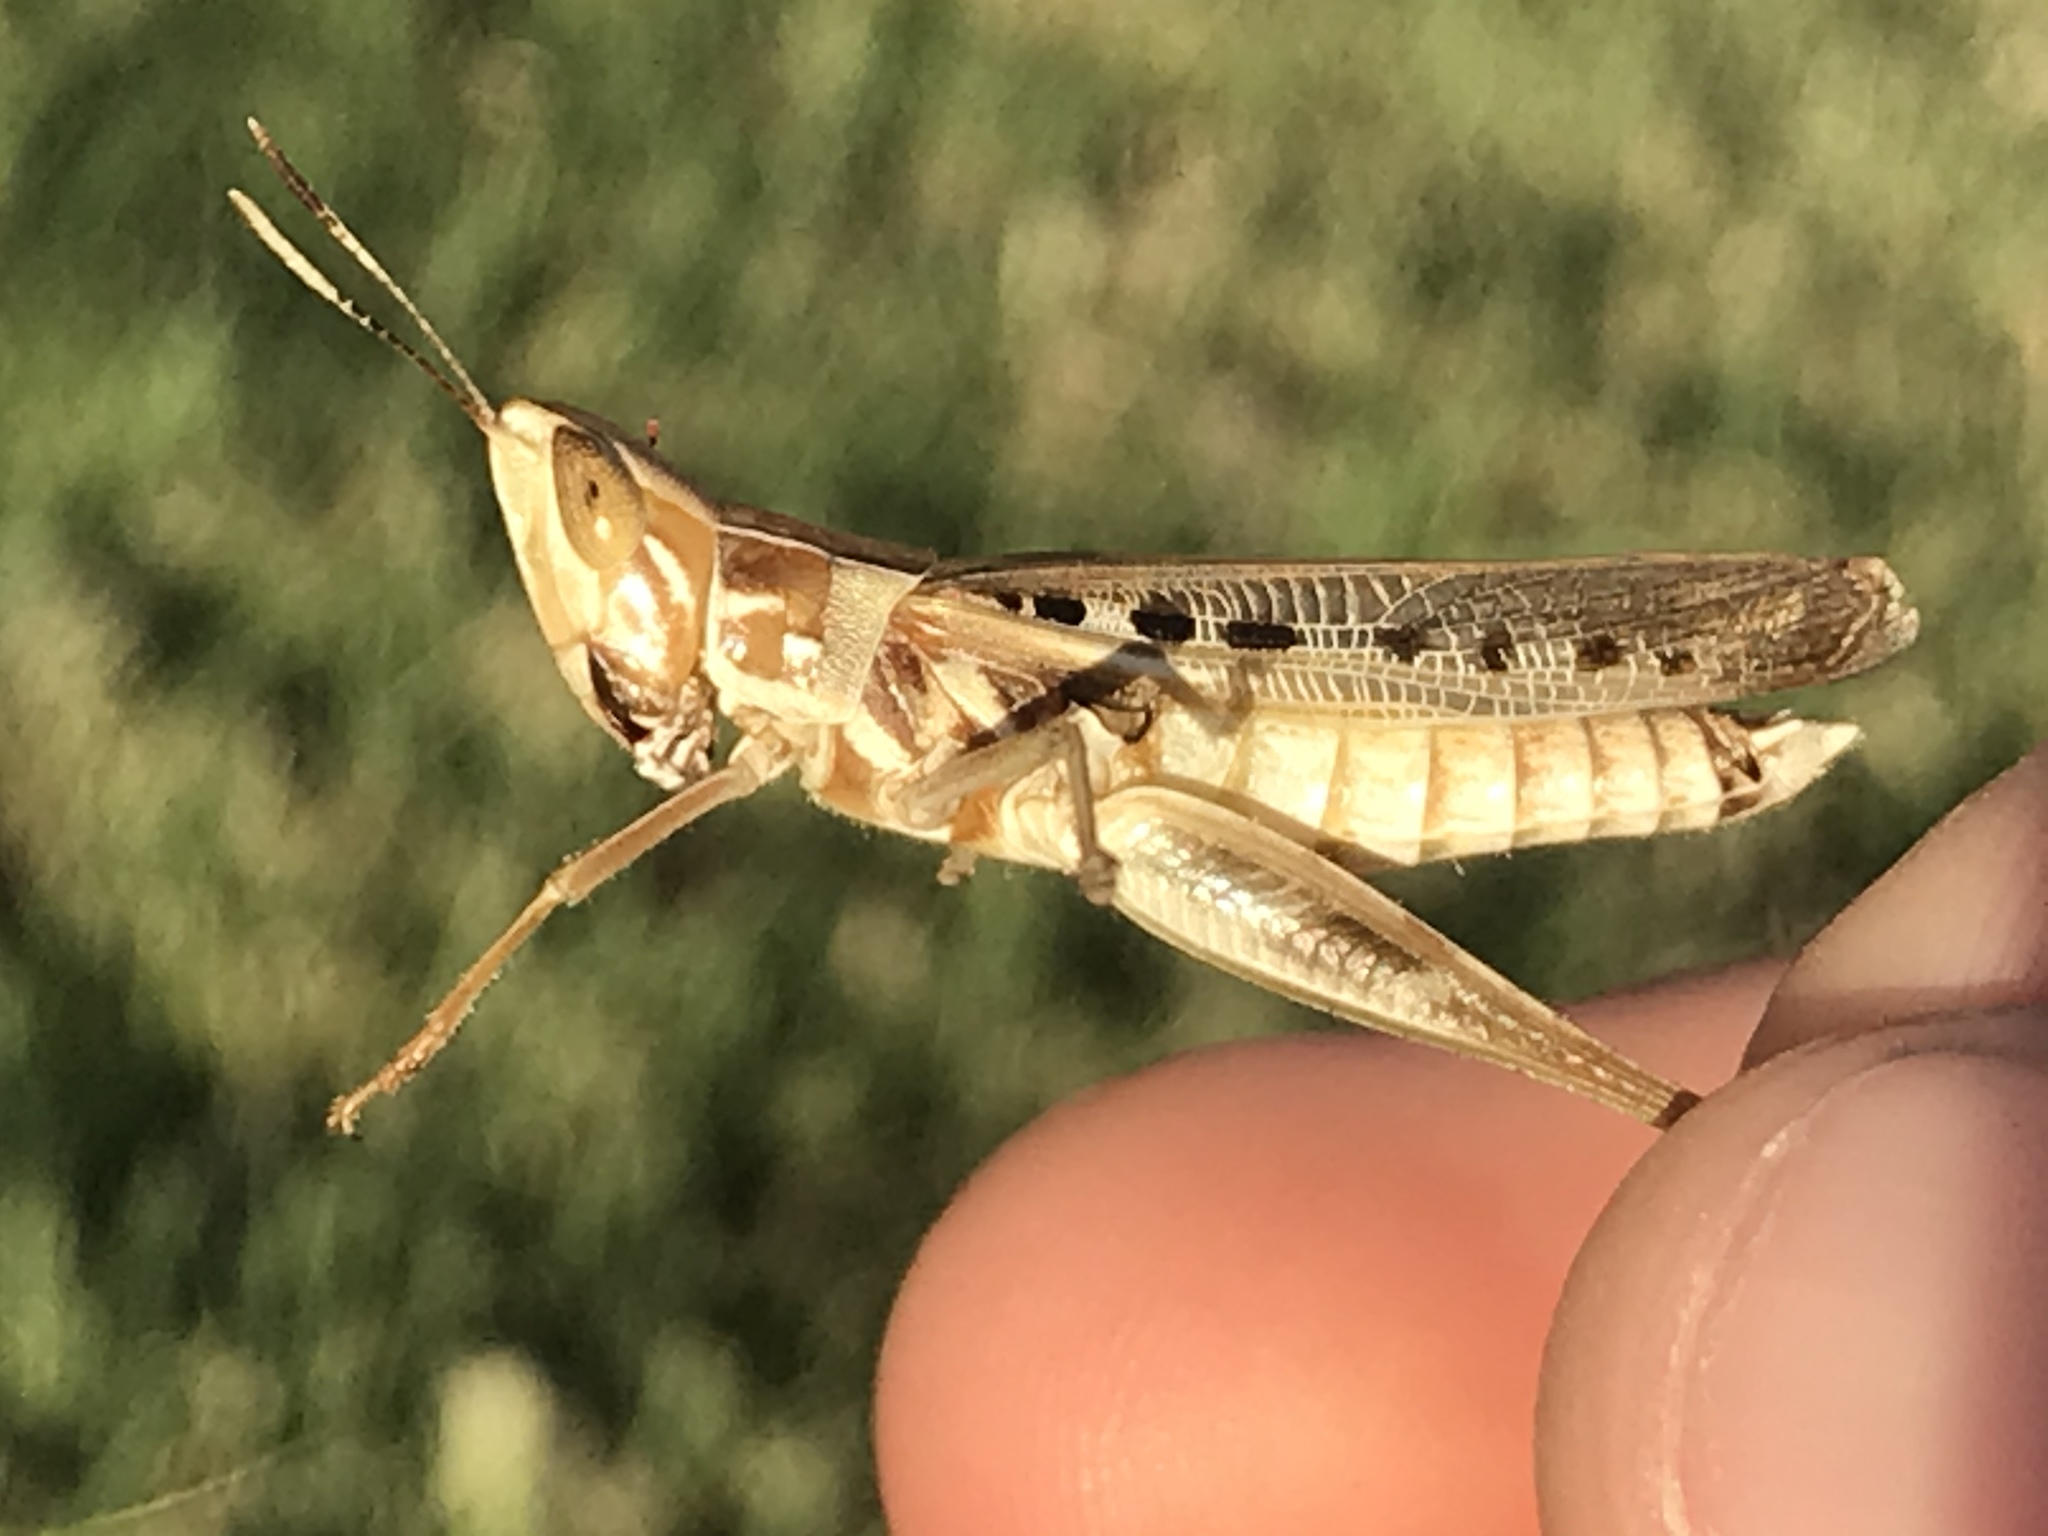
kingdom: Animalia
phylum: Arthropoda
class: Insecta
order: Orthoptera
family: Acrididae
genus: Syrbula
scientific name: Syrbula admirabilis
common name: Handsome grasshopper
